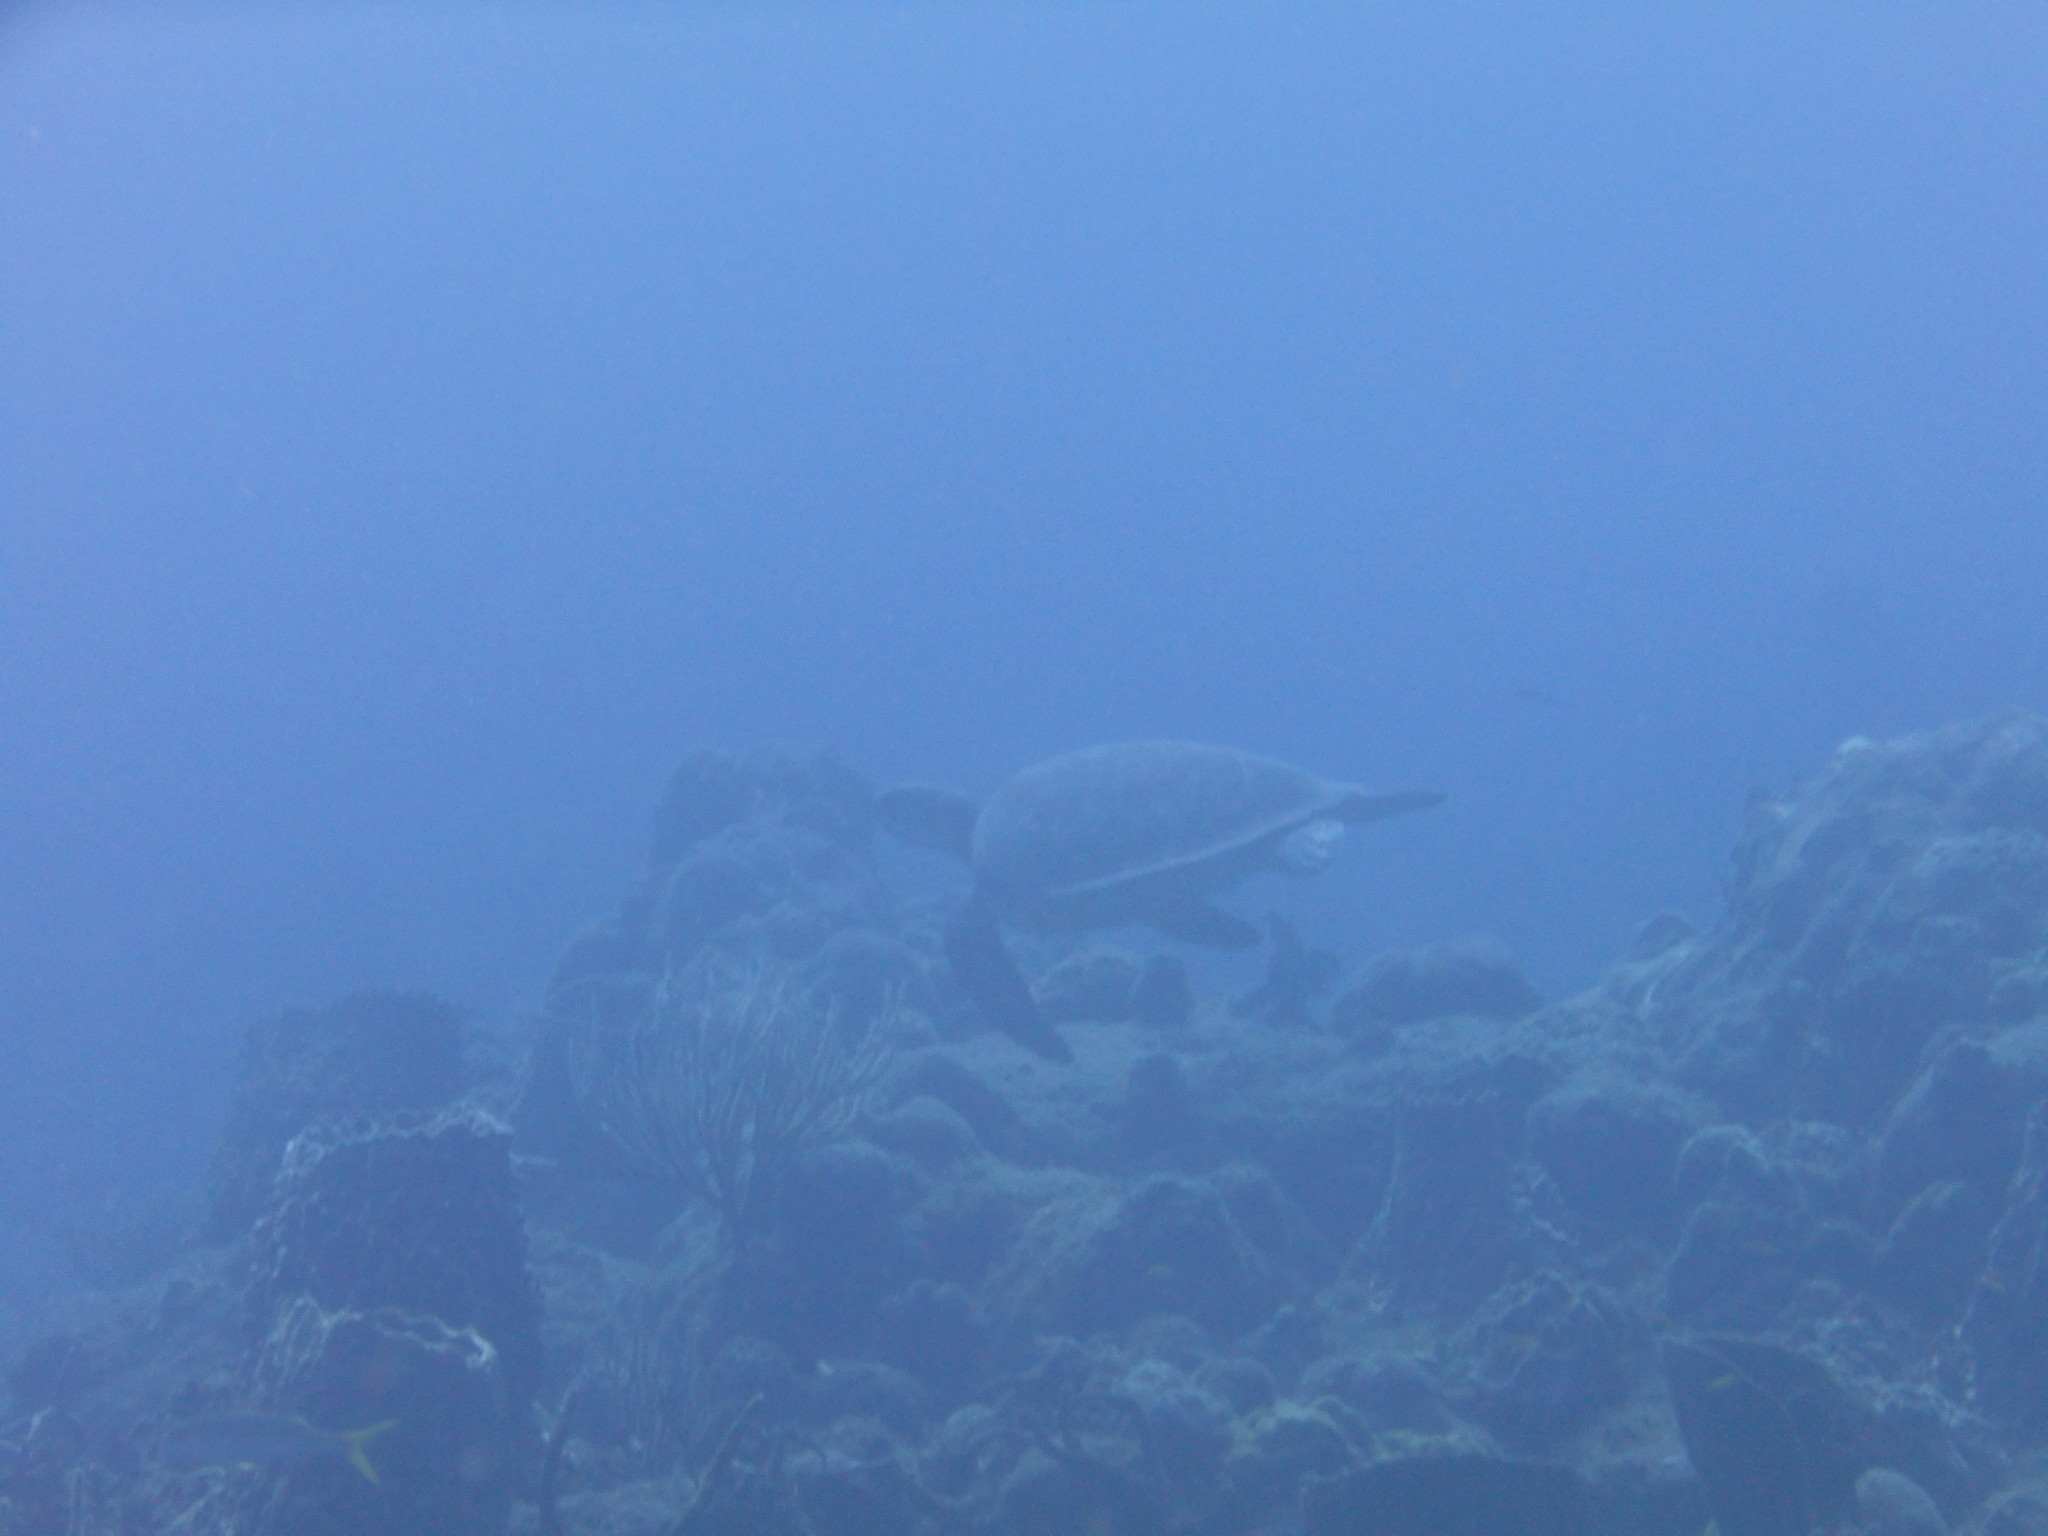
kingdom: Animalia
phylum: Chordata
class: Testudines
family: Cheloniidae
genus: Chelonia
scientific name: Chelonia mydas
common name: Green turtle
